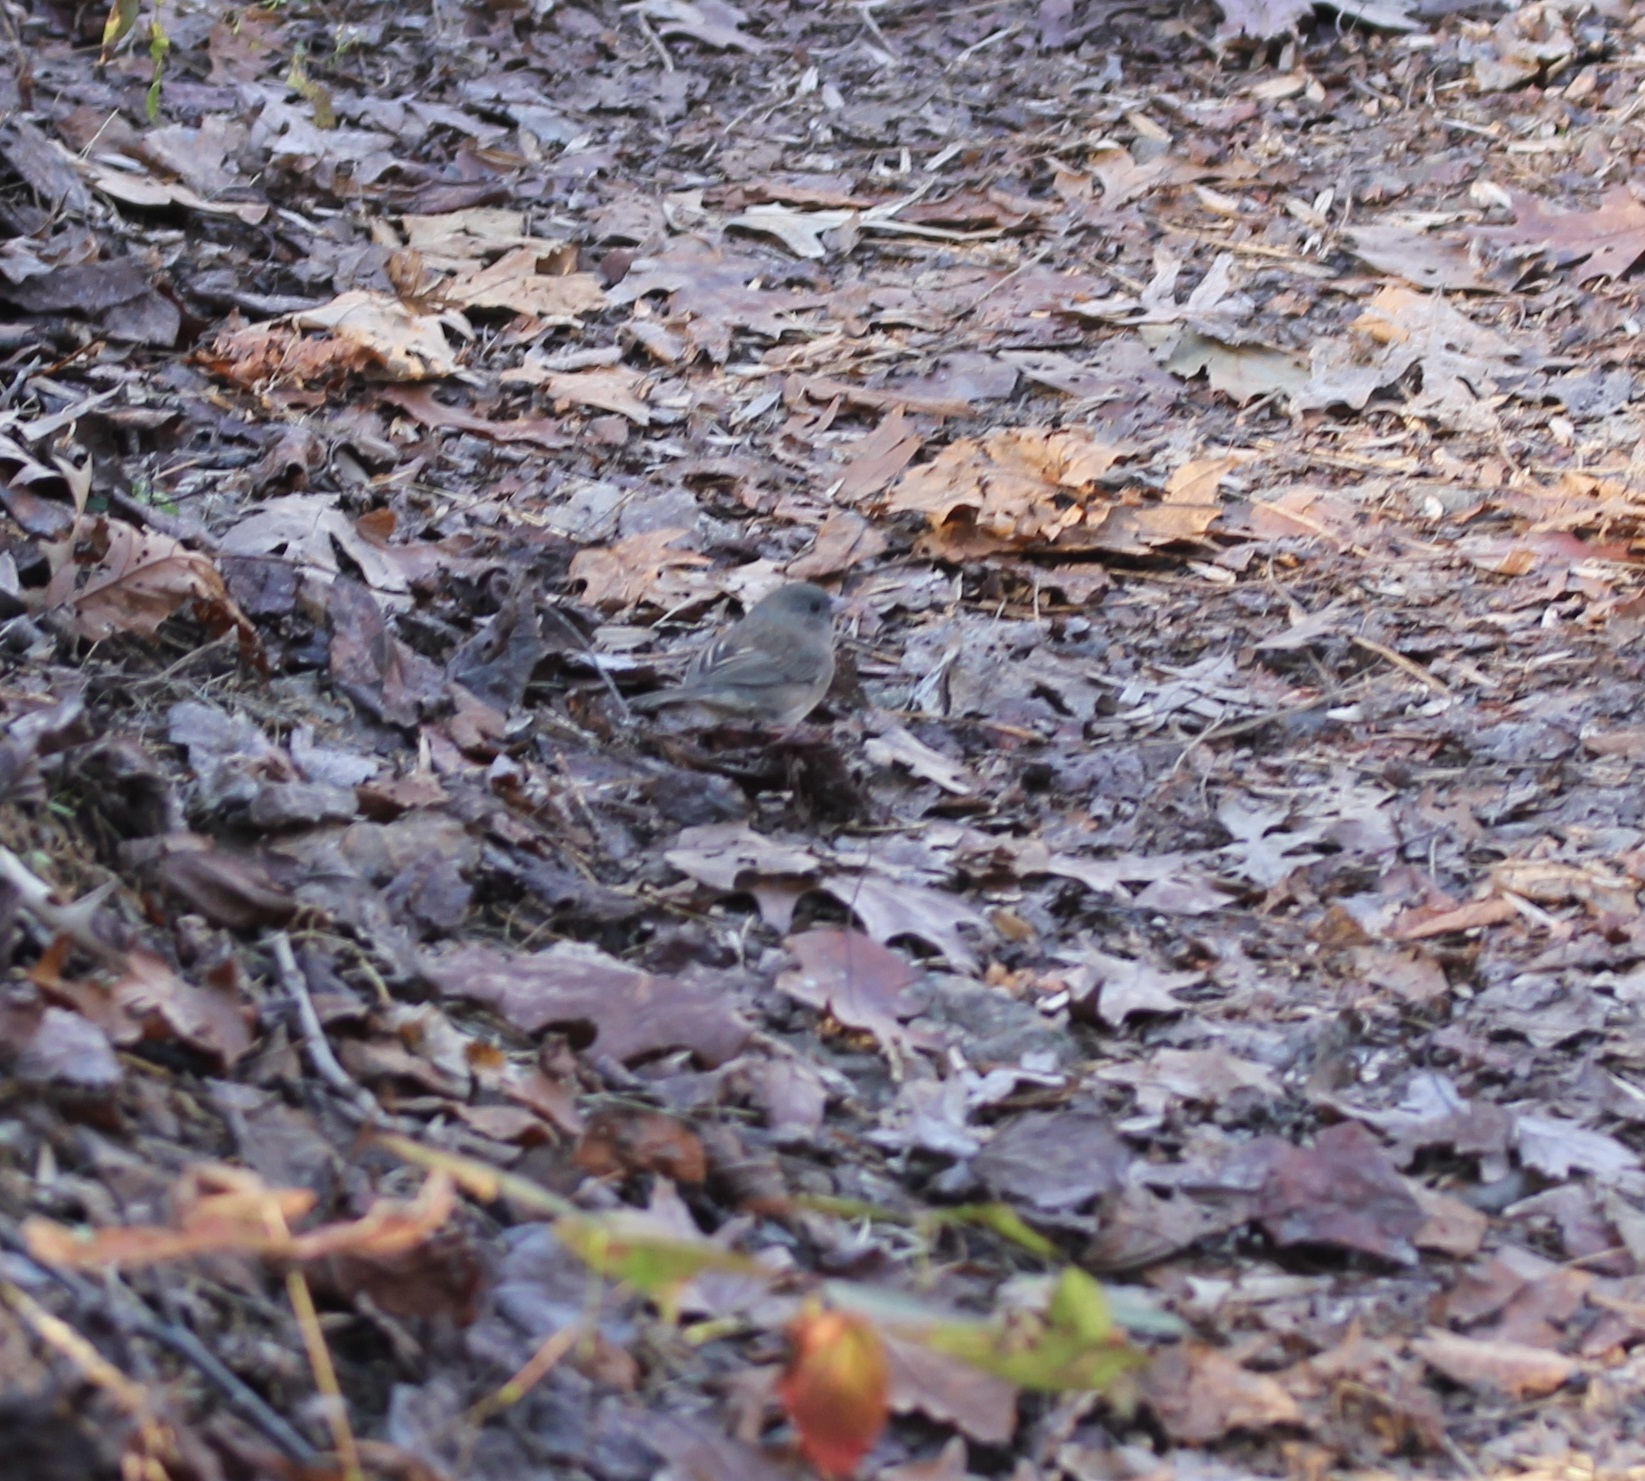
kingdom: Animalia
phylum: Chordata
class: Aves
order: Passeriformes
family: Passerellidae
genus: Junco
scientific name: Junco hyemalis
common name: Dark-eyed junco
